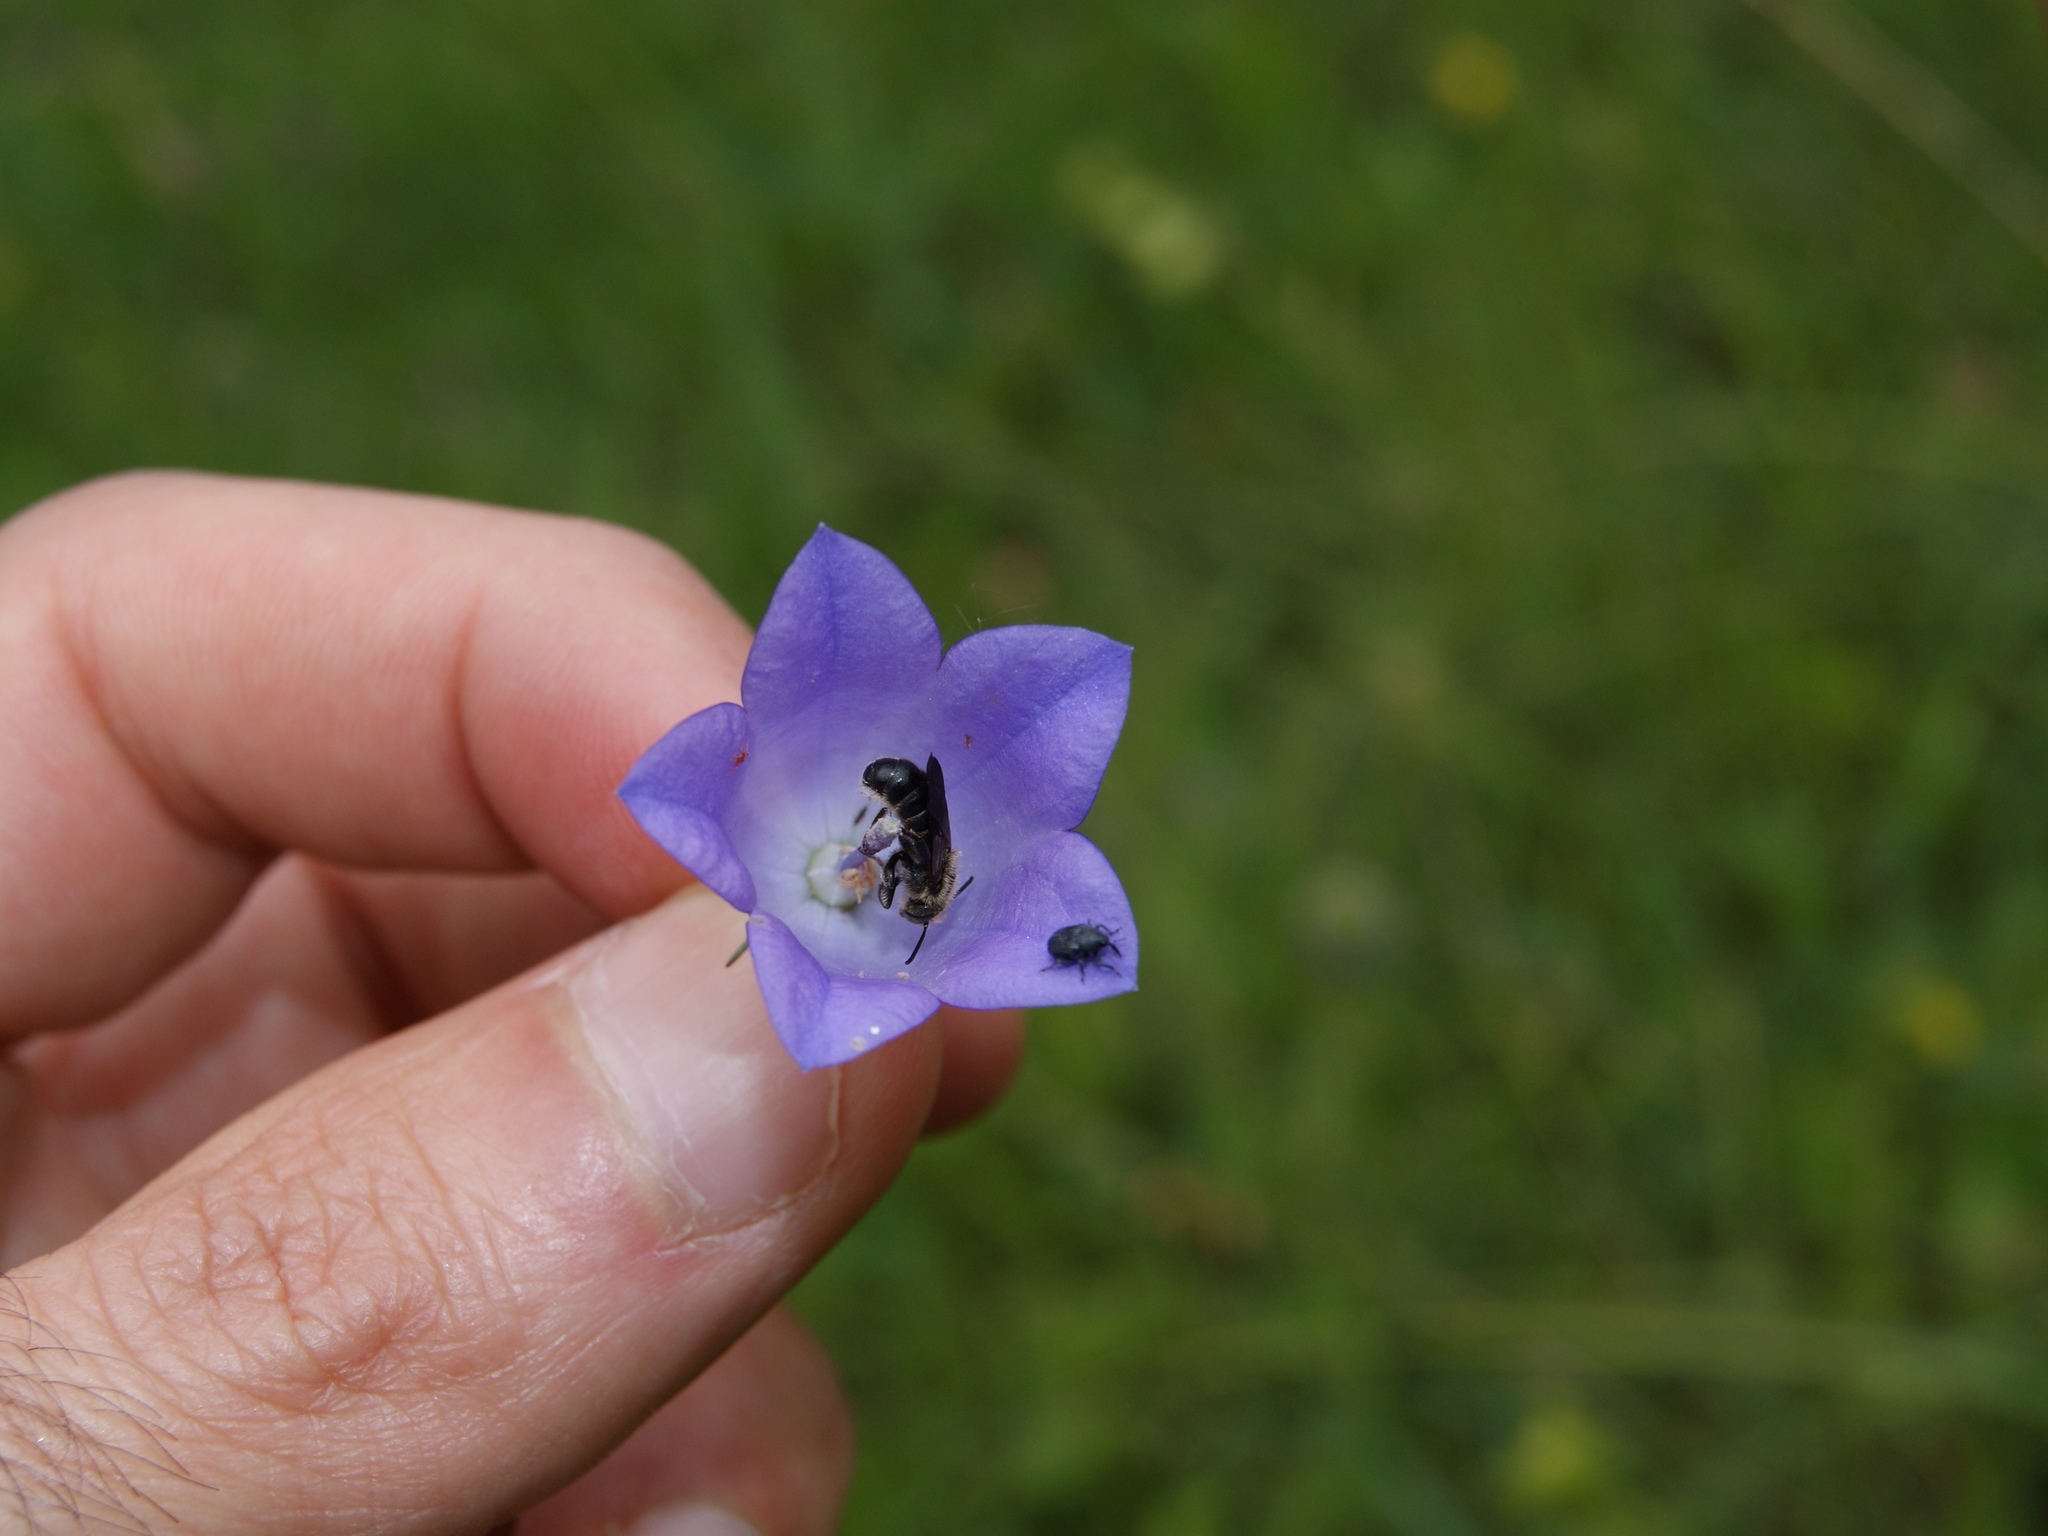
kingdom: Animalia
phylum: Arthropoda
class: Insecta
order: Hymenoptera
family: Megachilidae
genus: Chelostoma
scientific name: Chelostoma rapunculi
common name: Rampion scissor bee
